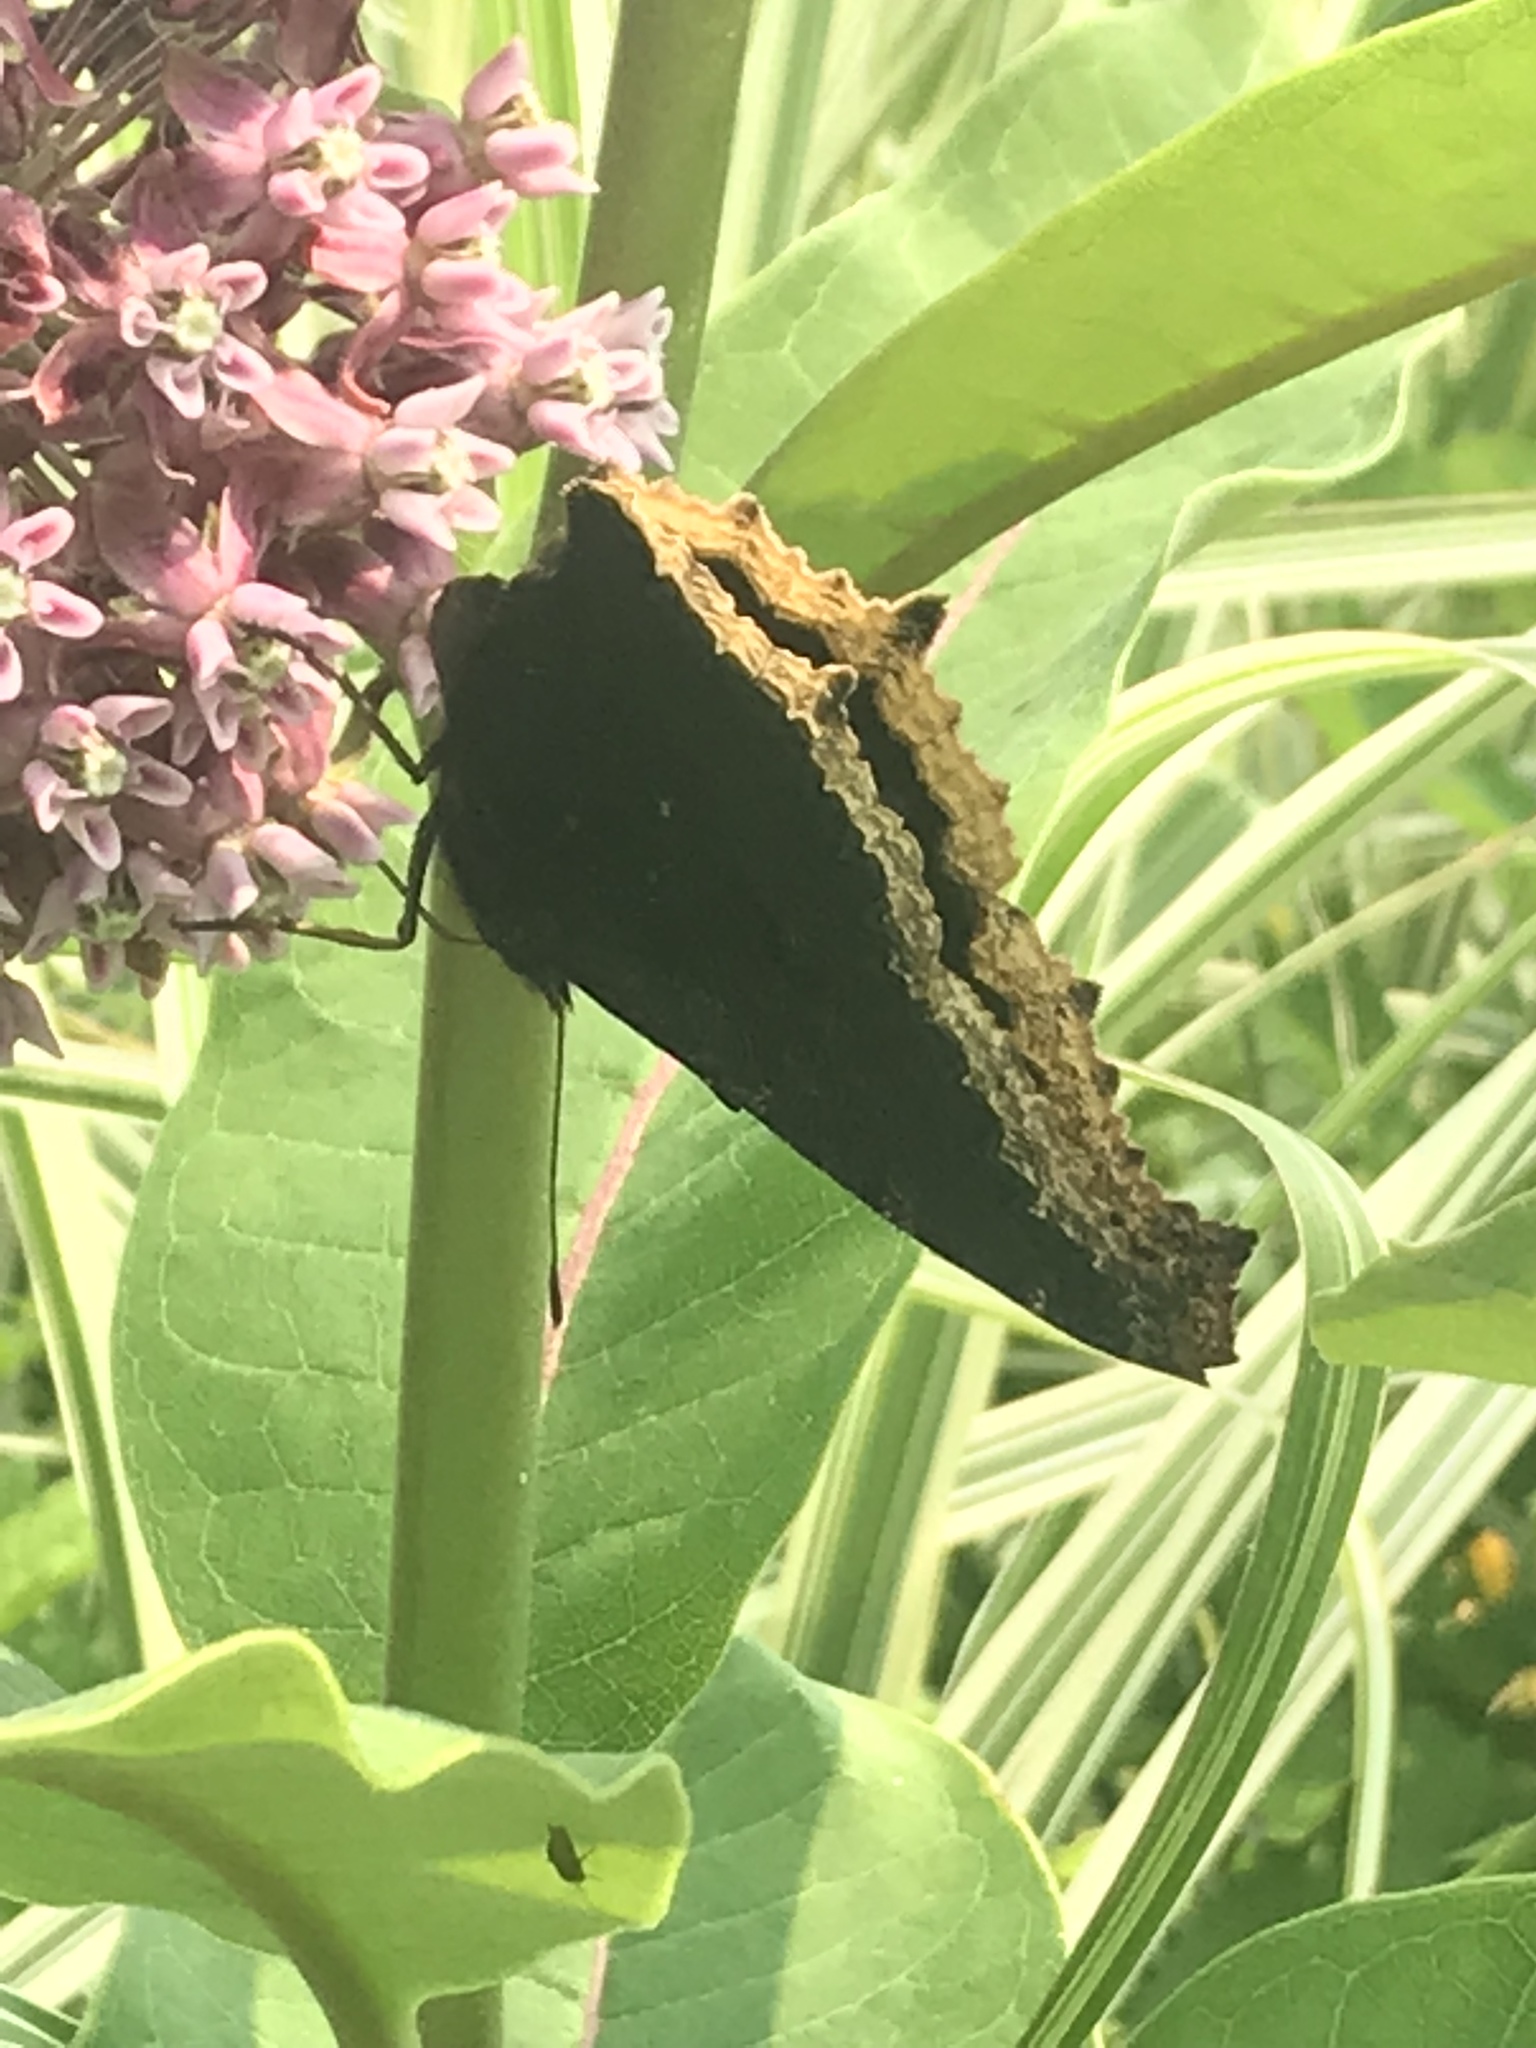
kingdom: Animalia
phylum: Arthropoda
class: Insecta
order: Lepidoptera
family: Nymphalidae
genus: Nymphalis
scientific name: Nymphalis antiopa
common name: Camberwell beauty
